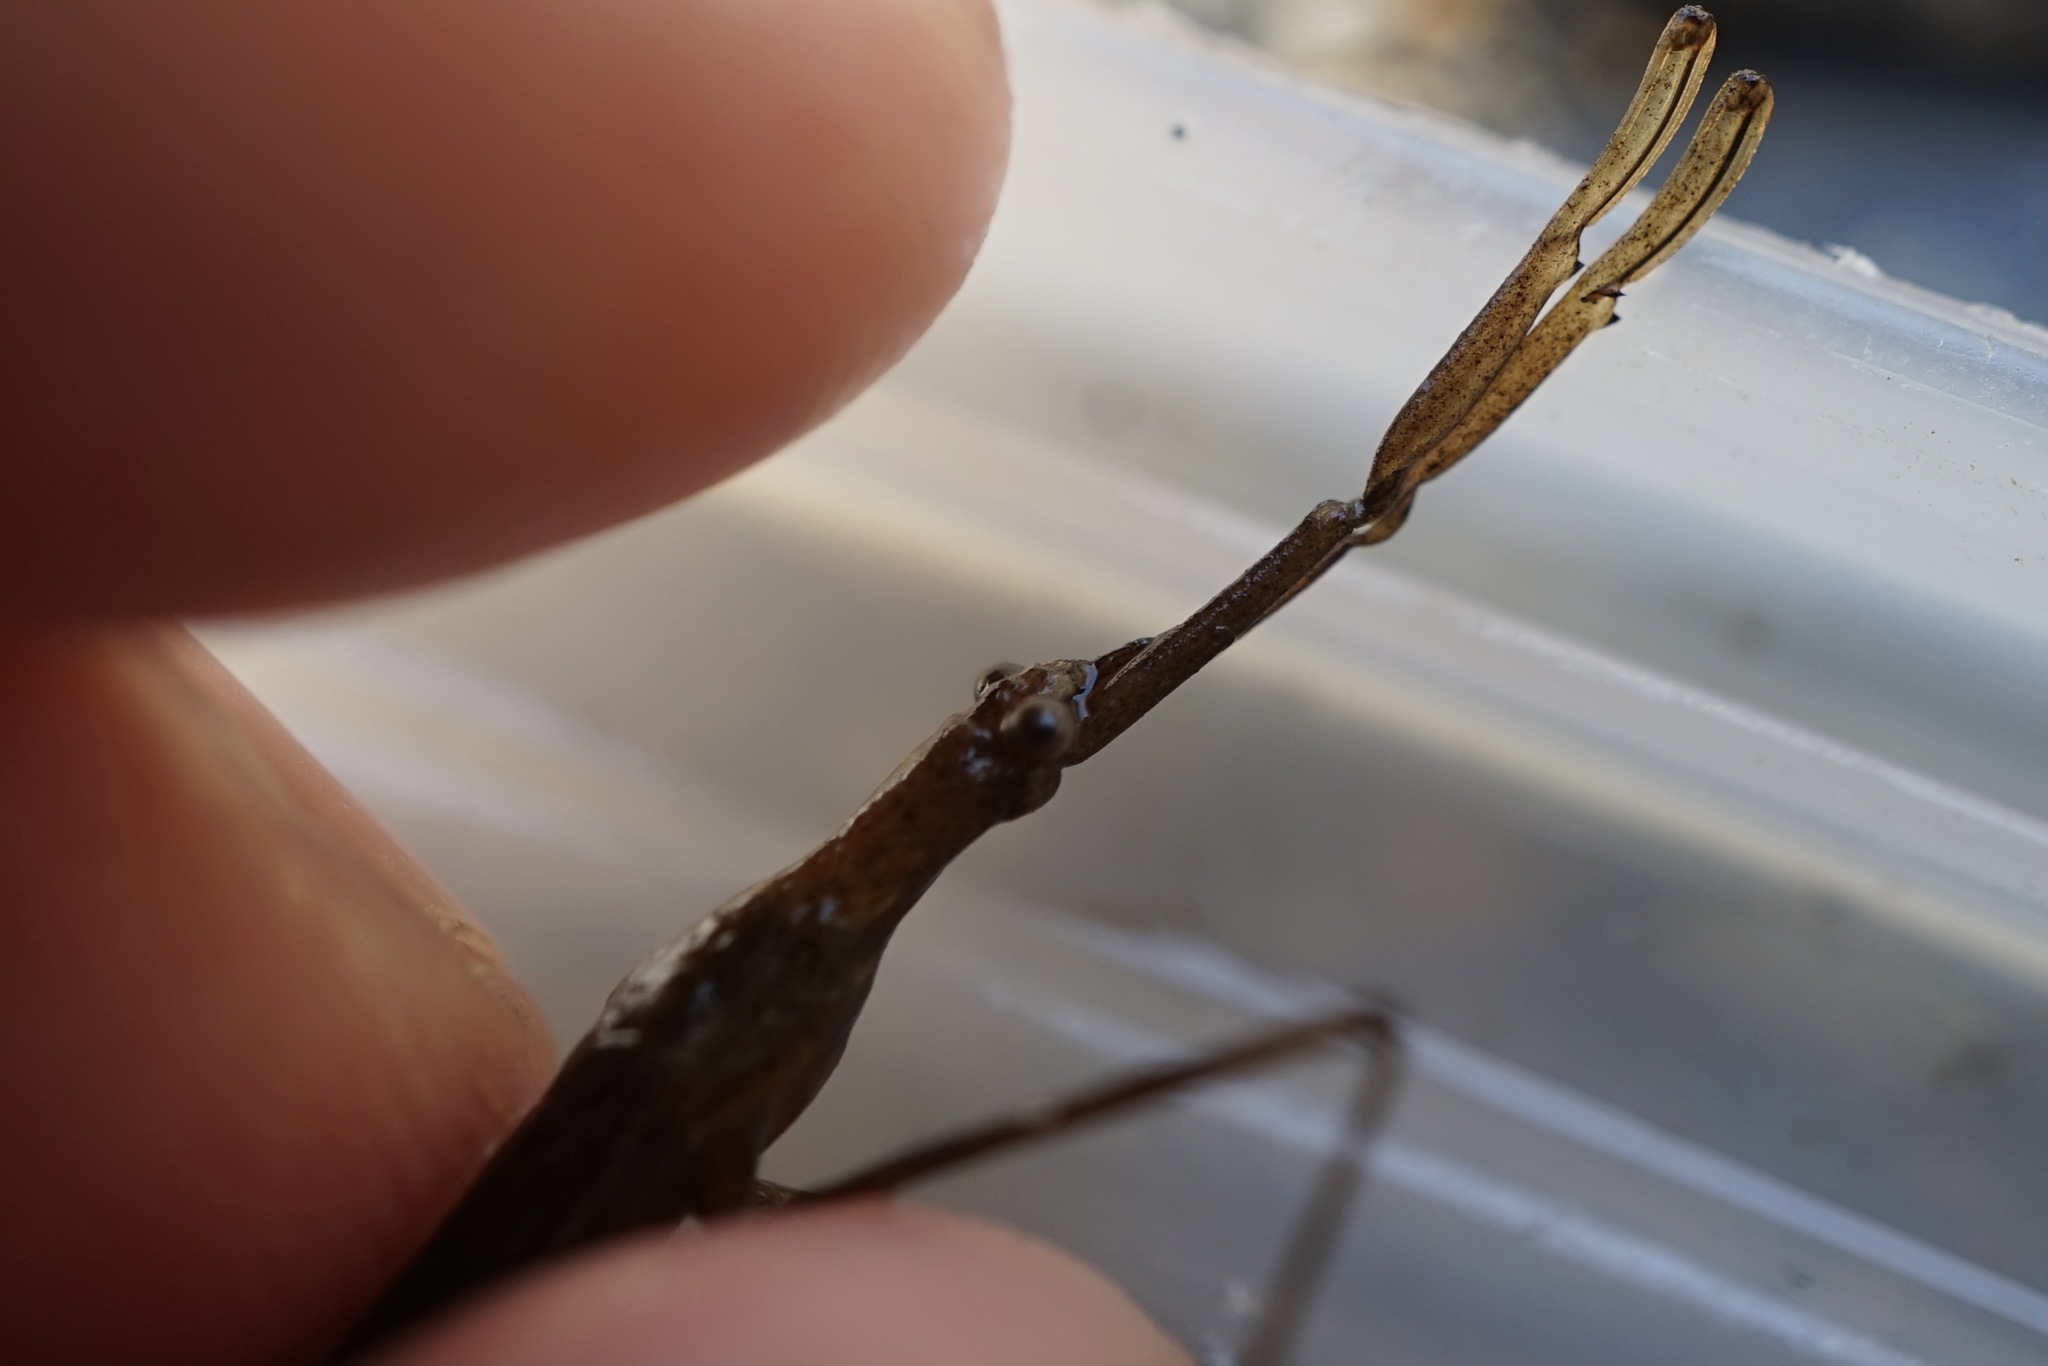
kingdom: Animalia
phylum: Arthropoda
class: Insecta
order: Hemiptera
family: Nepidae
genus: Ranatra
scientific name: Ranatra unicolor
